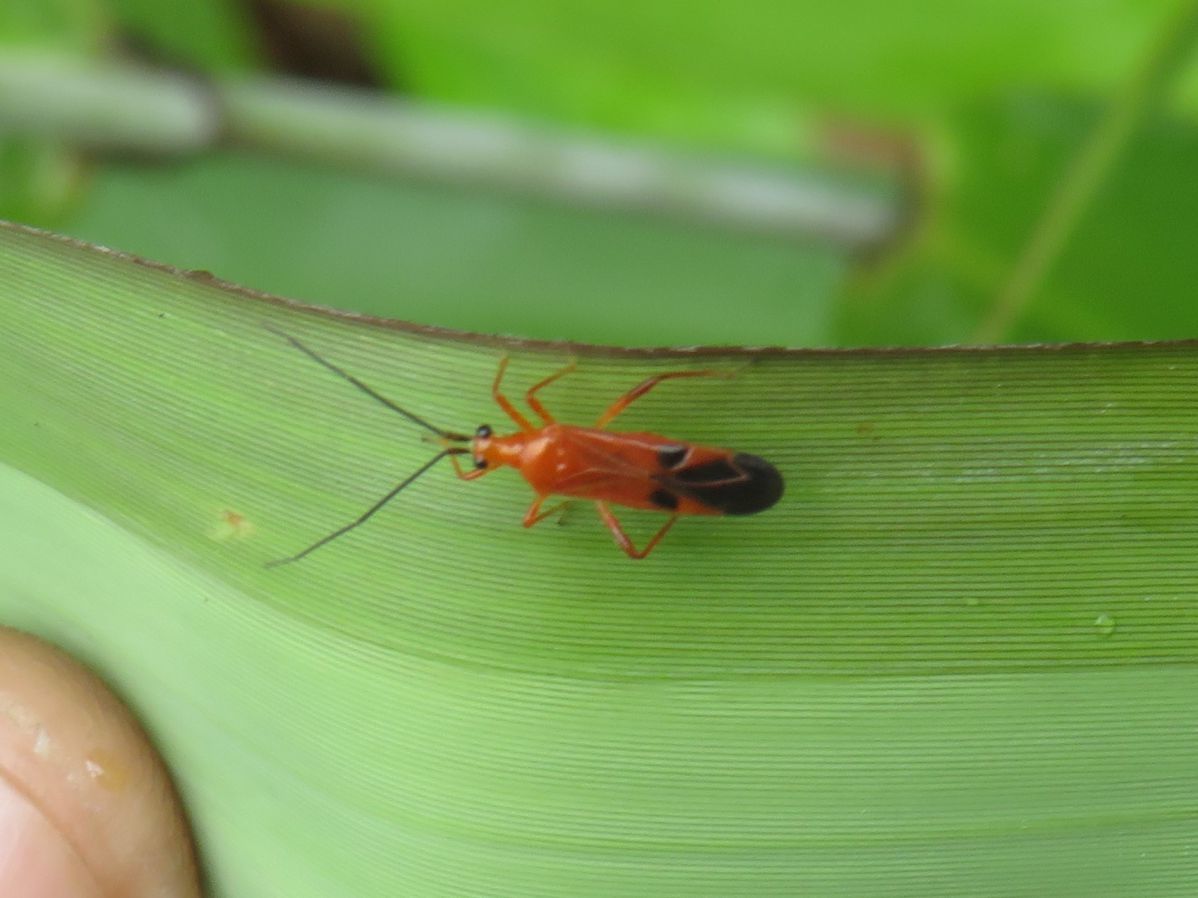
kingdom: Animalia
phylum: Arthropoda
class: Insecta
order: Hemiptera
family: Miridae
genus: Pachypeltis
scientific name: Pachypeltis politum
